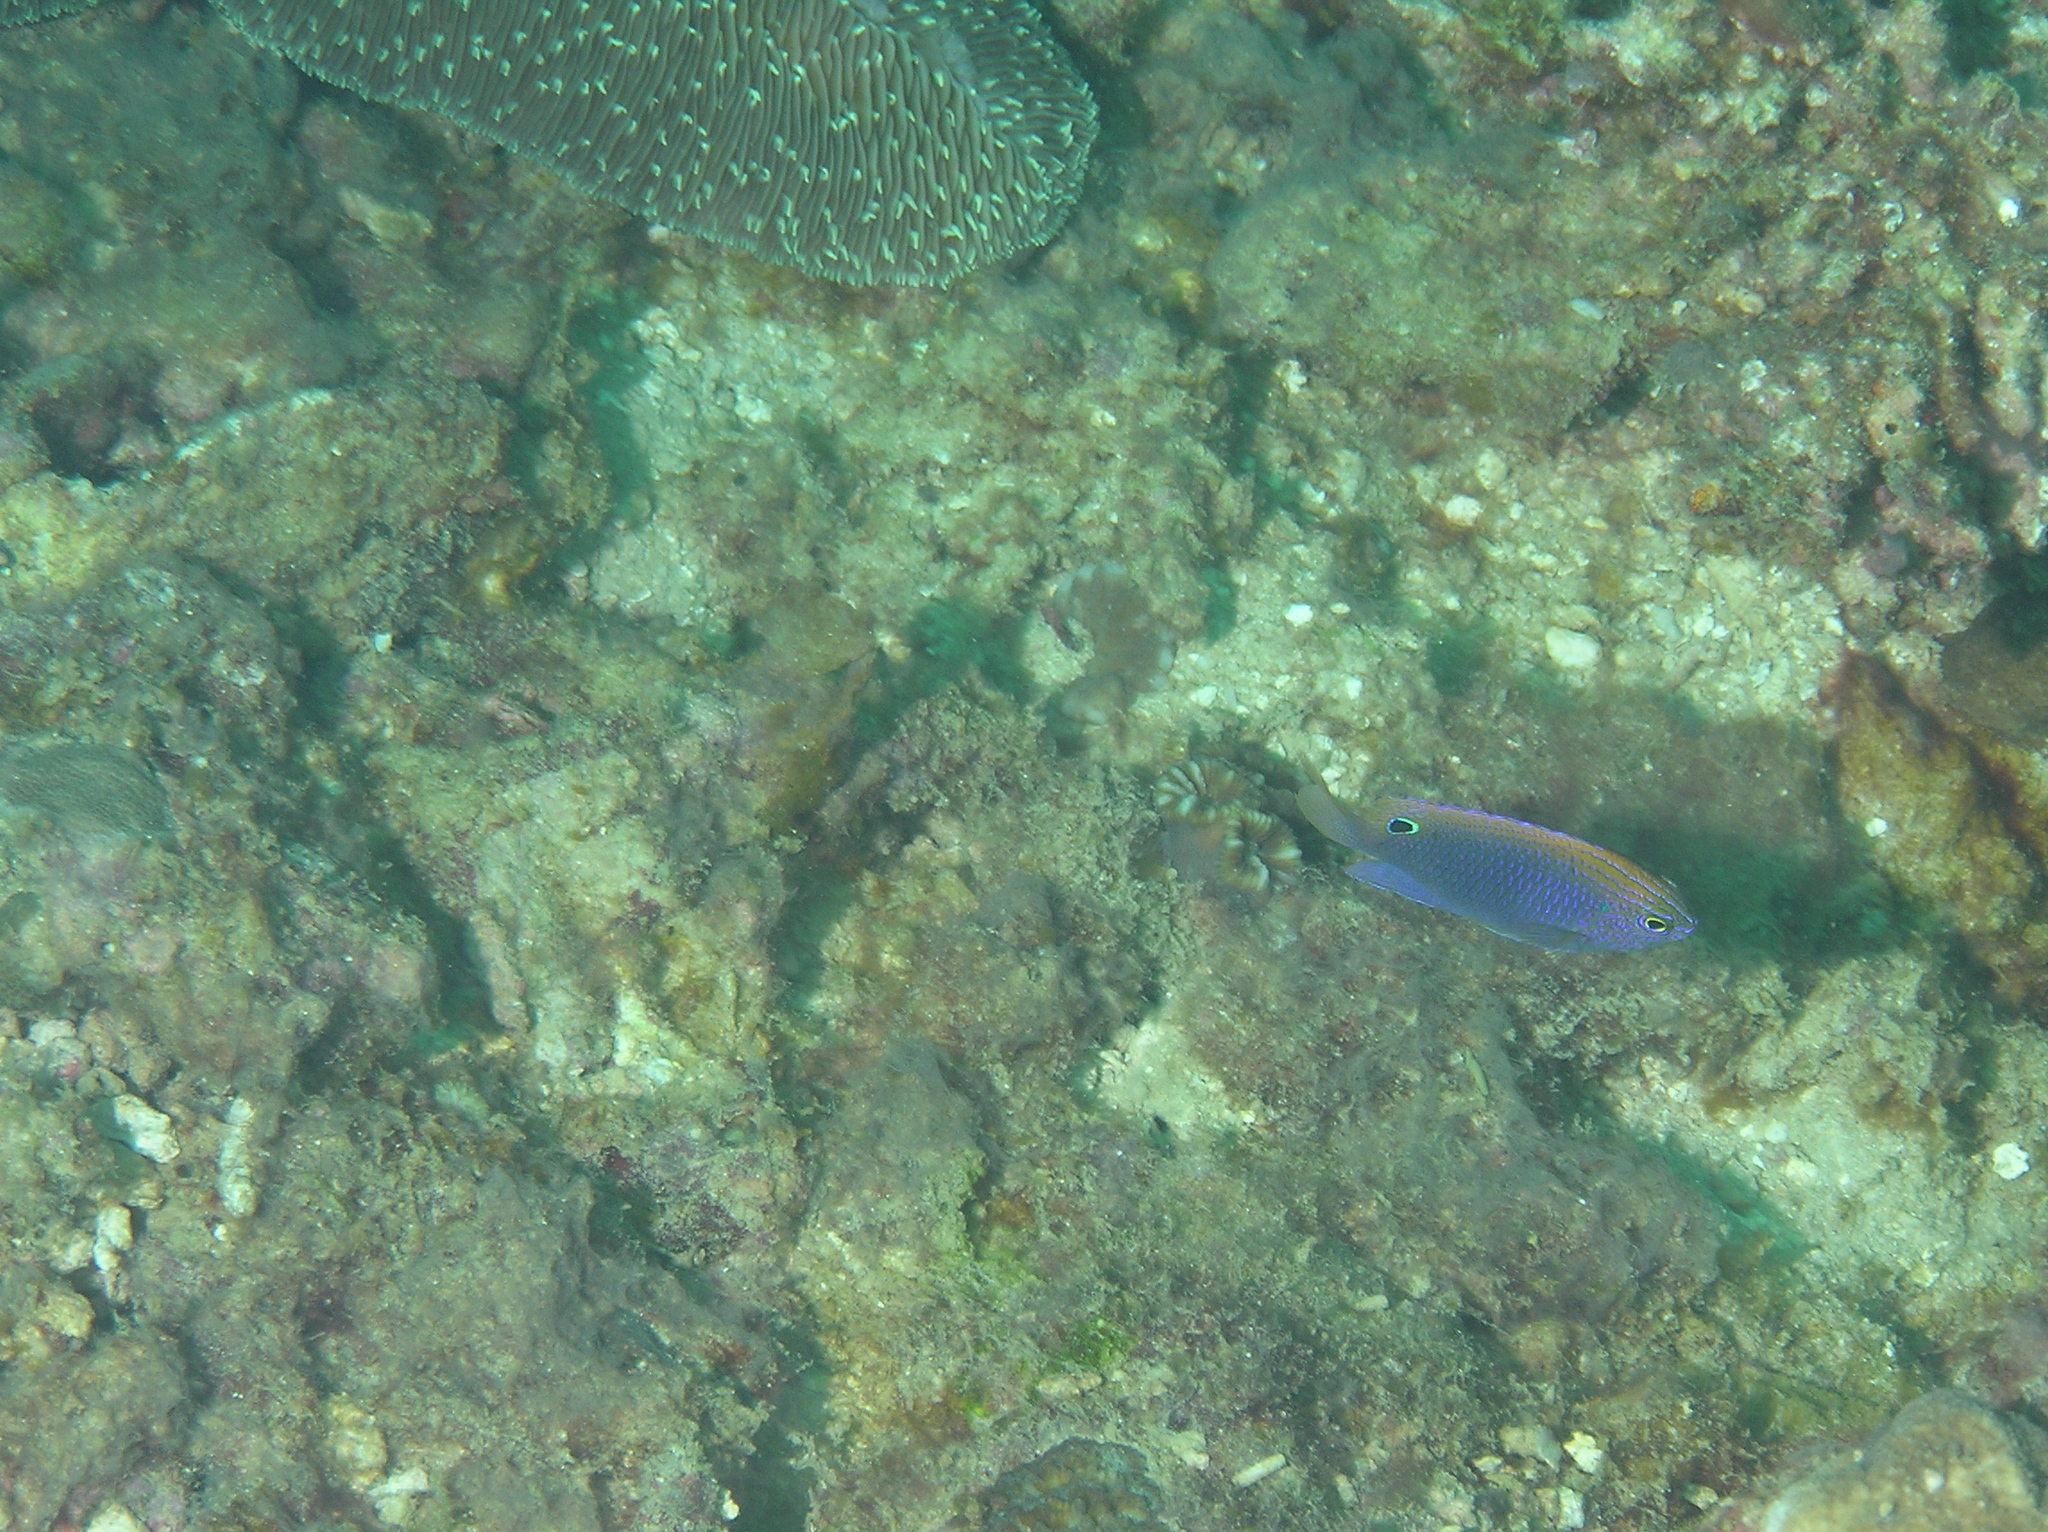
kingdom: Animalia
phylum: Chordata
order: Perciformes
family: Pomacentridae
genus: Pomacentrus
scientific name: Pomacentrus vaiuli
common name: Princess damsel
